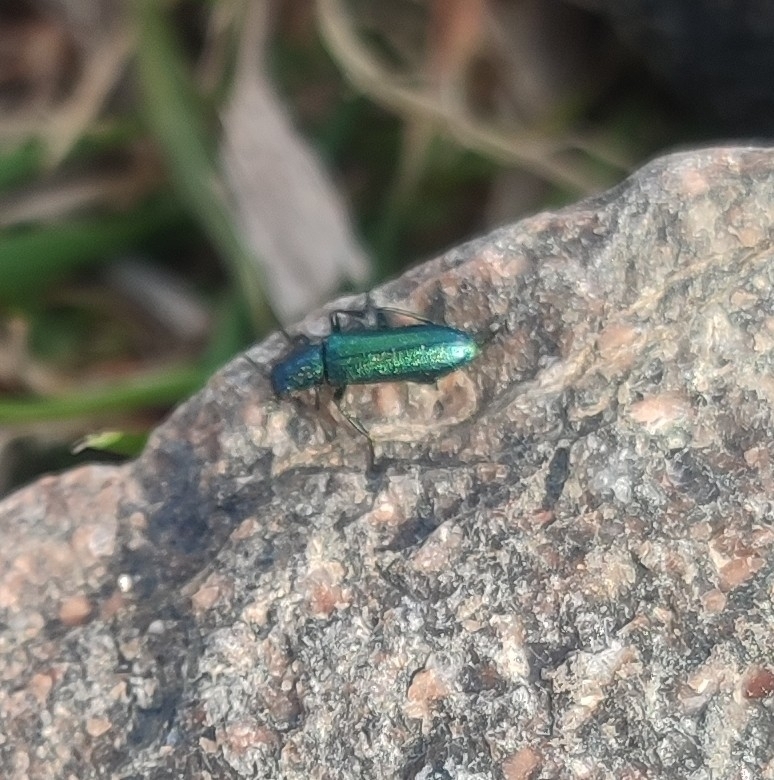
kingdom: Animalia
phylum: Arthropoda
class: Insecta
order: Coleoptera
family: Dasytidae
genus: Psilothrix
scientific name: Psilothrix viridicoerulea
